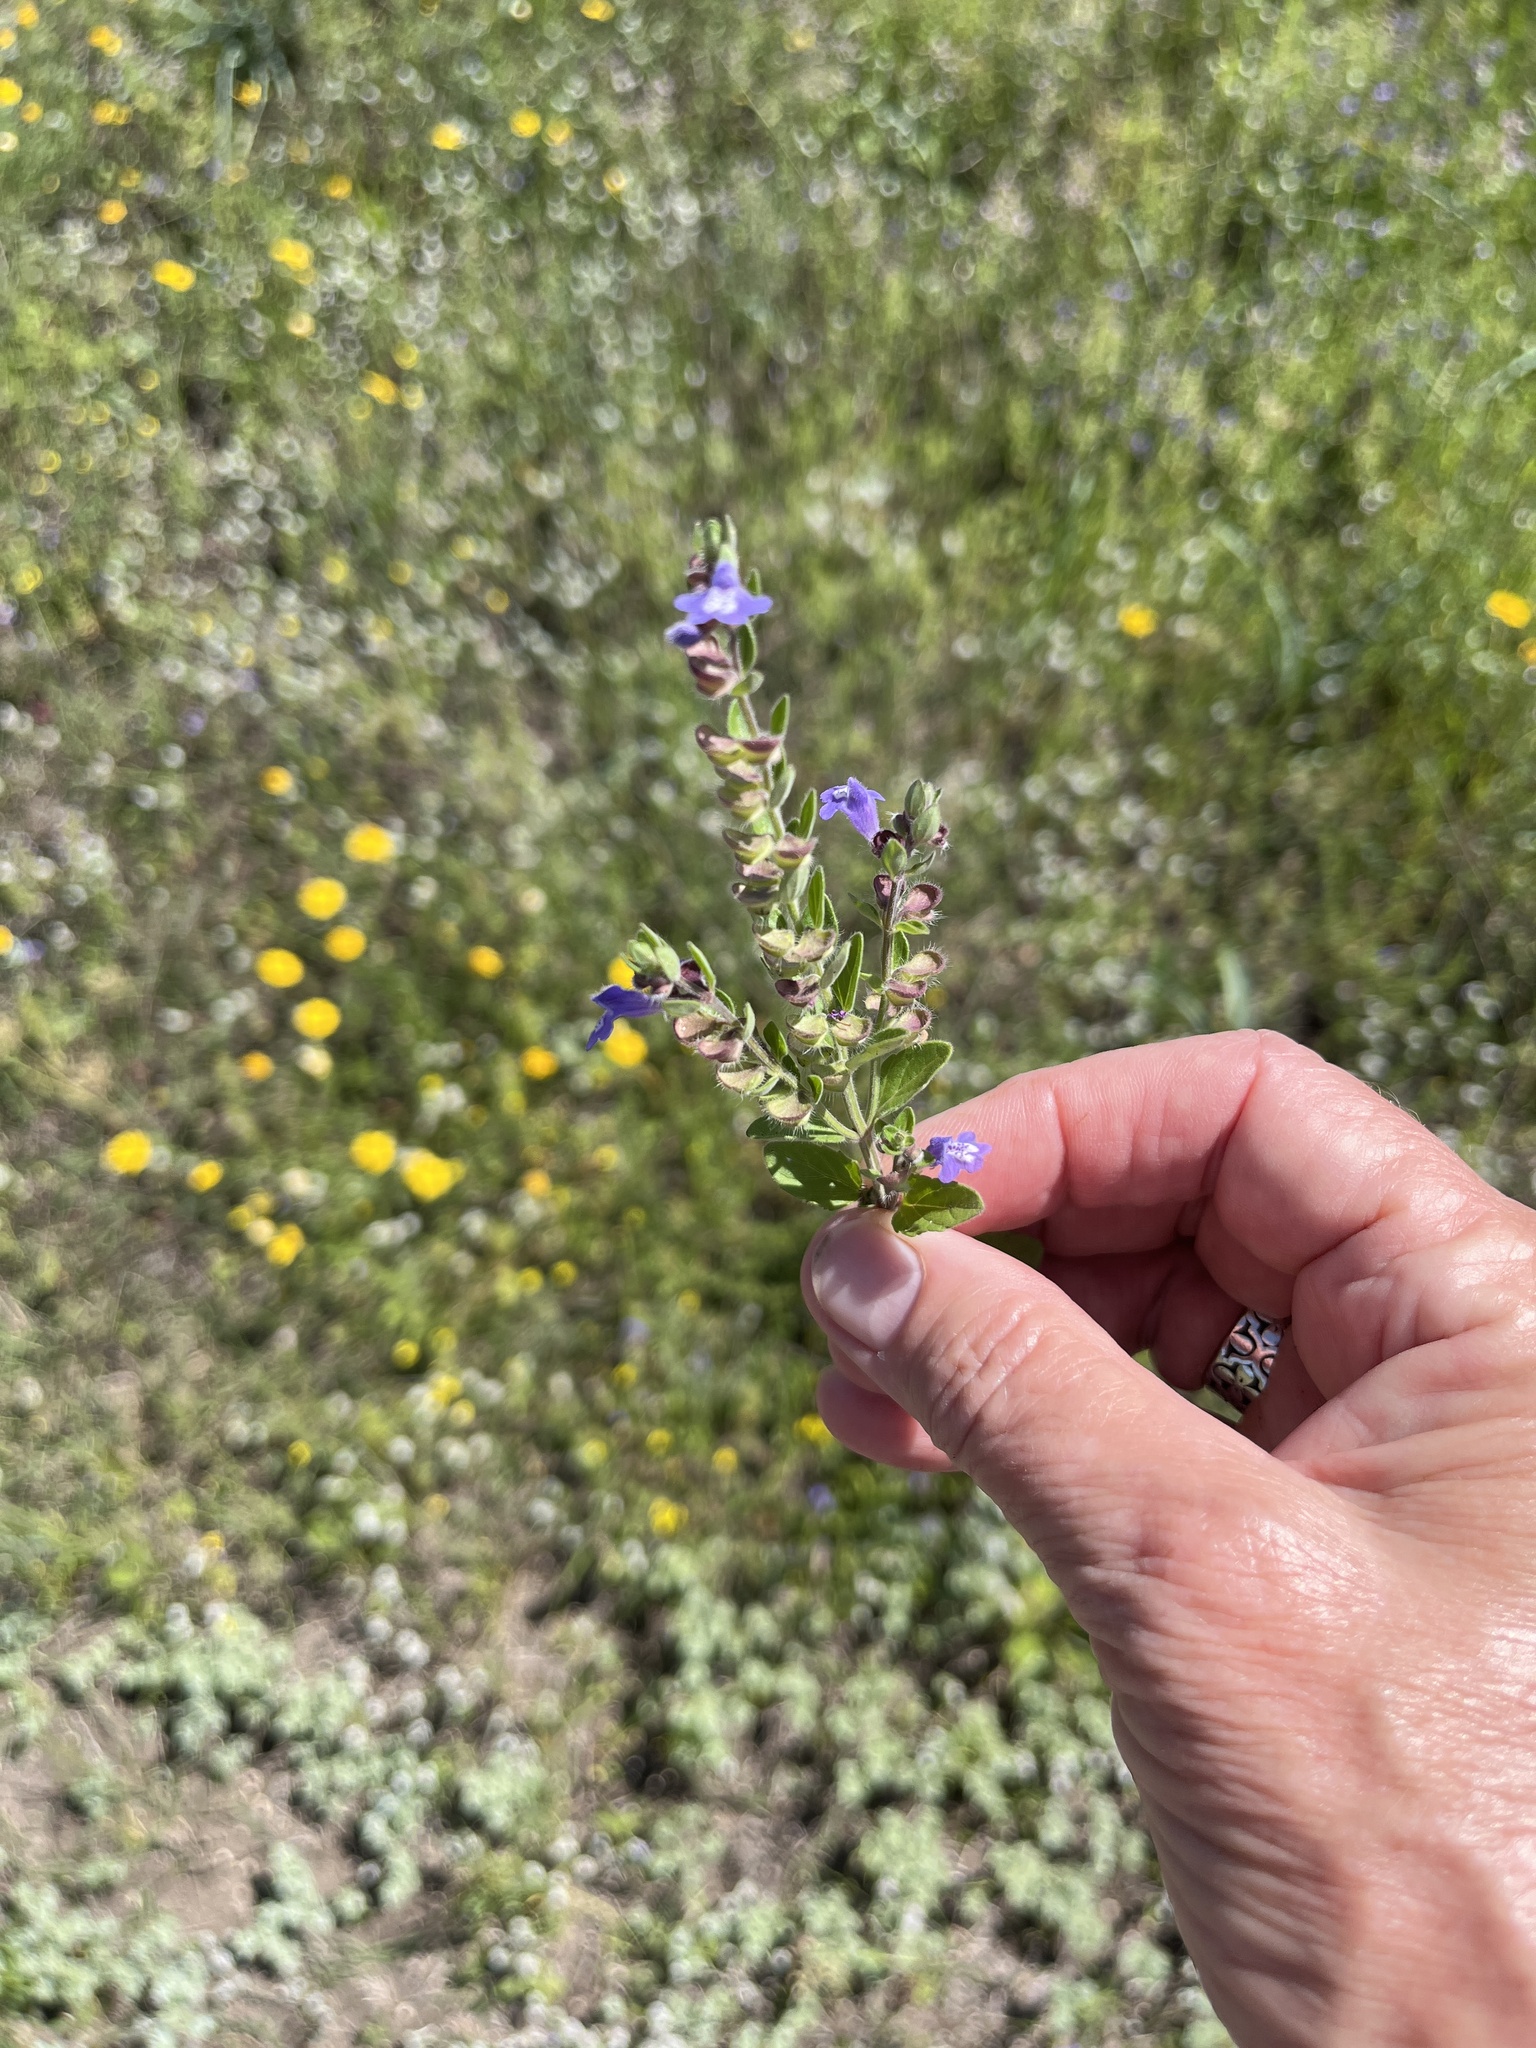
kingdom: Plantae
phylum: Tracheophyta
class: Magnoliopsida
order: Lamiales
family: Lamiaceae
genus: Scutellaria
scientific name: Scutellaria drummondii
